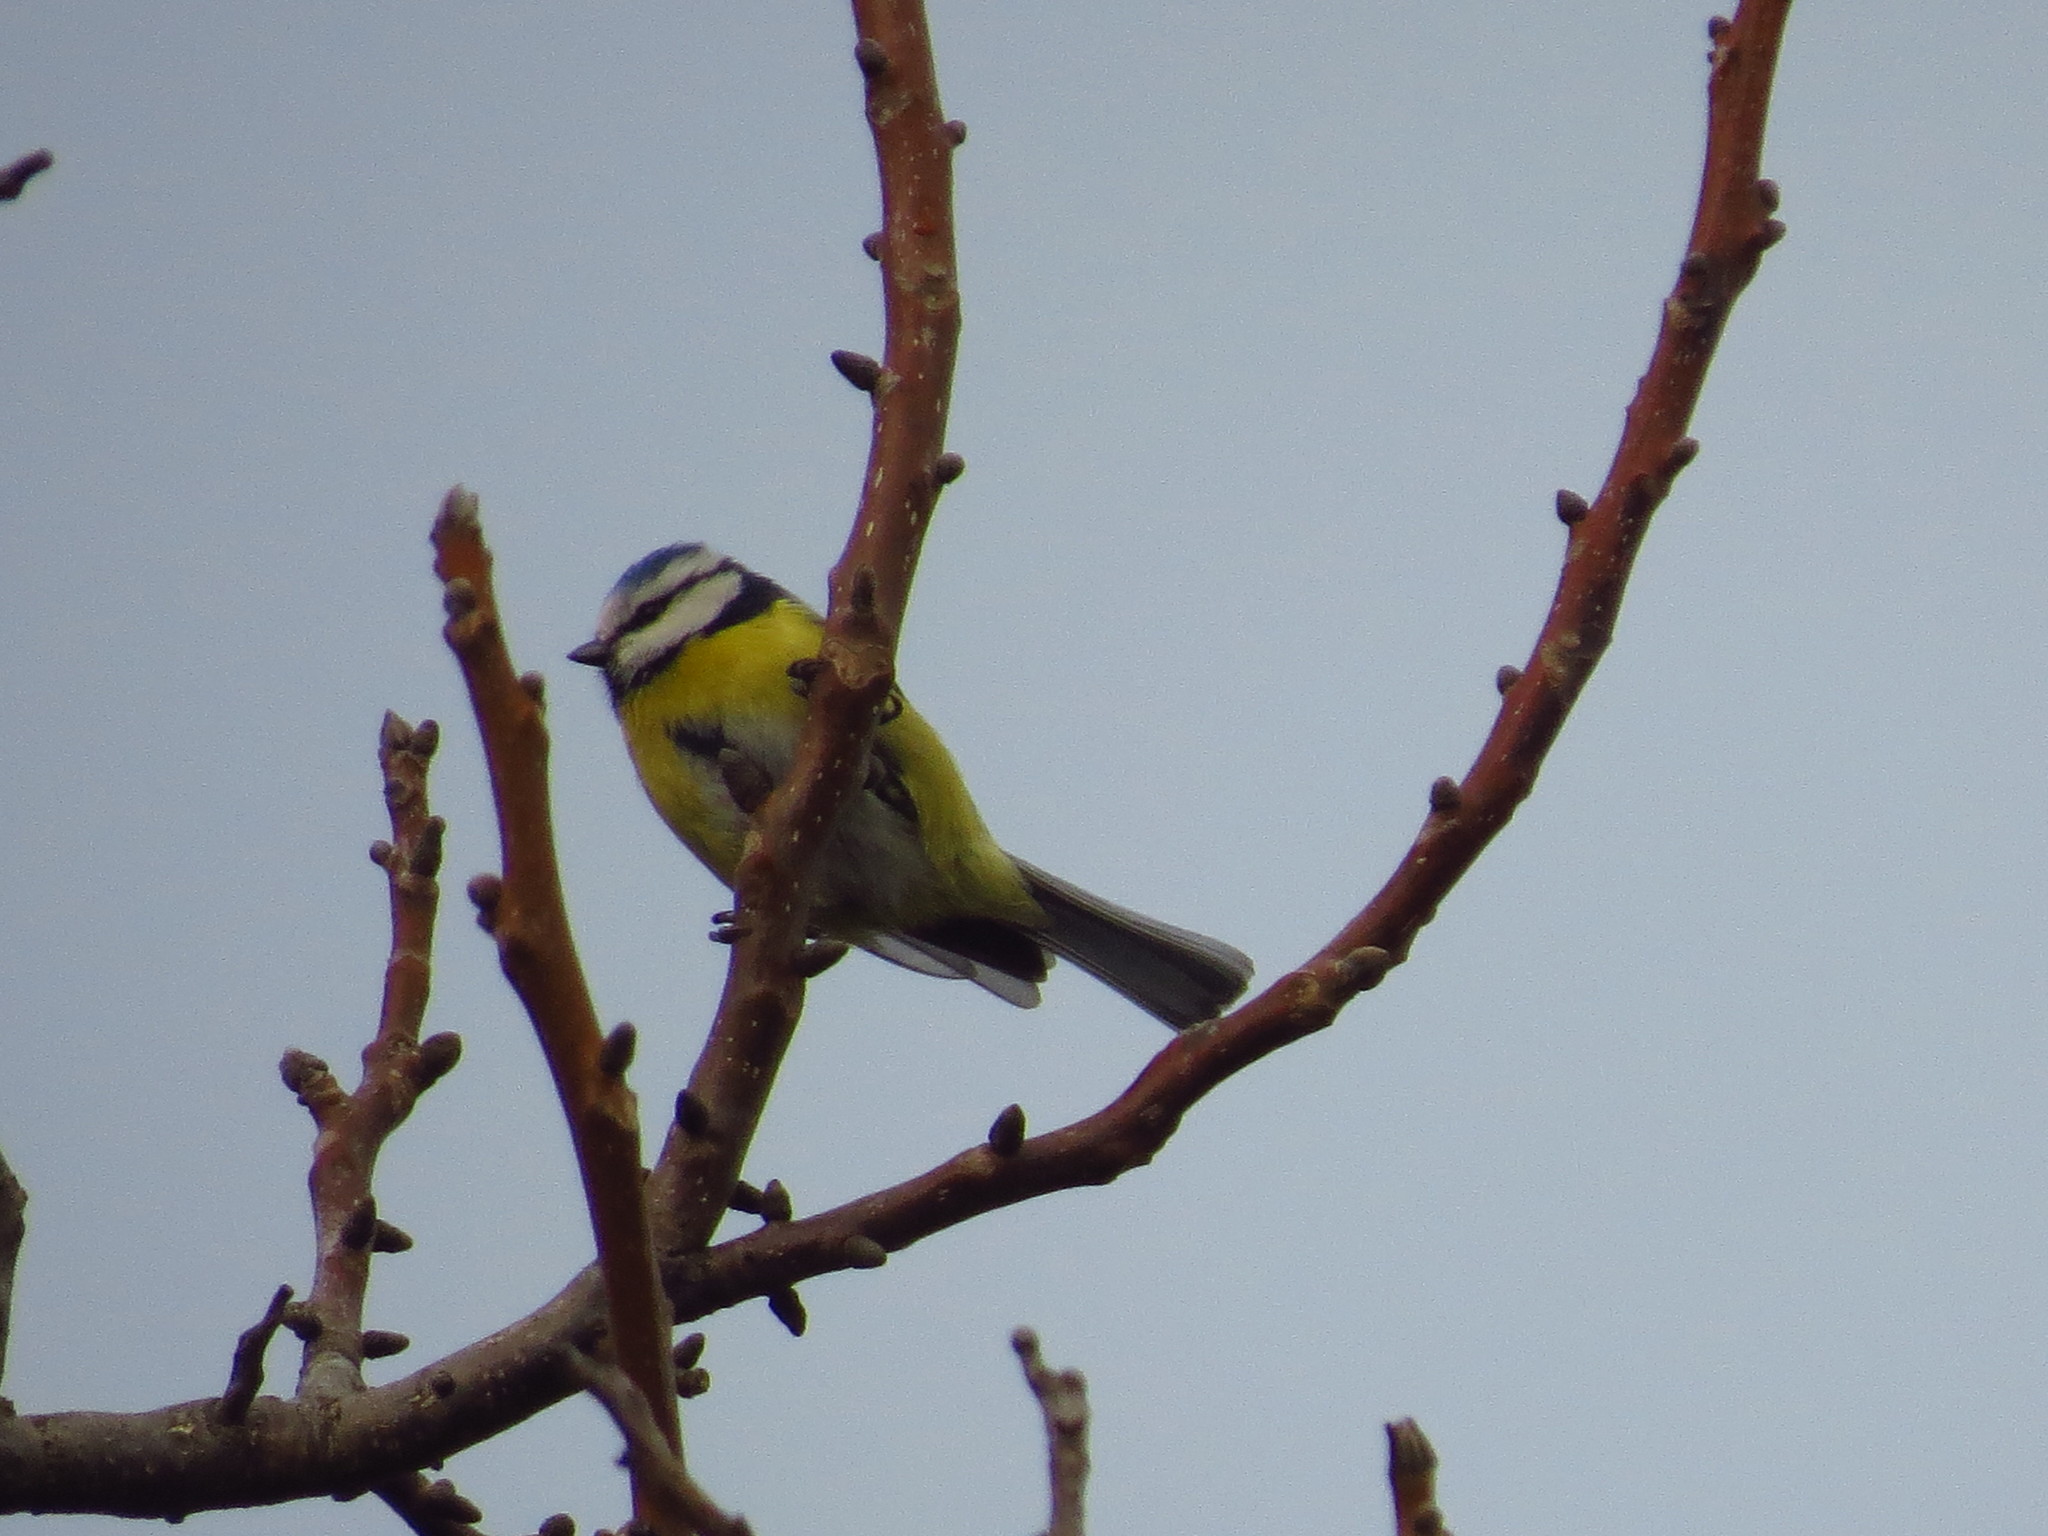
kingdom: Animalia
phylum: Chordata
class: Aves
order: Passeriformes
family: Paridae
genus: Cyanistes
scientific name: Cyanistes caeruleus
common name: Eurasian blue tit
